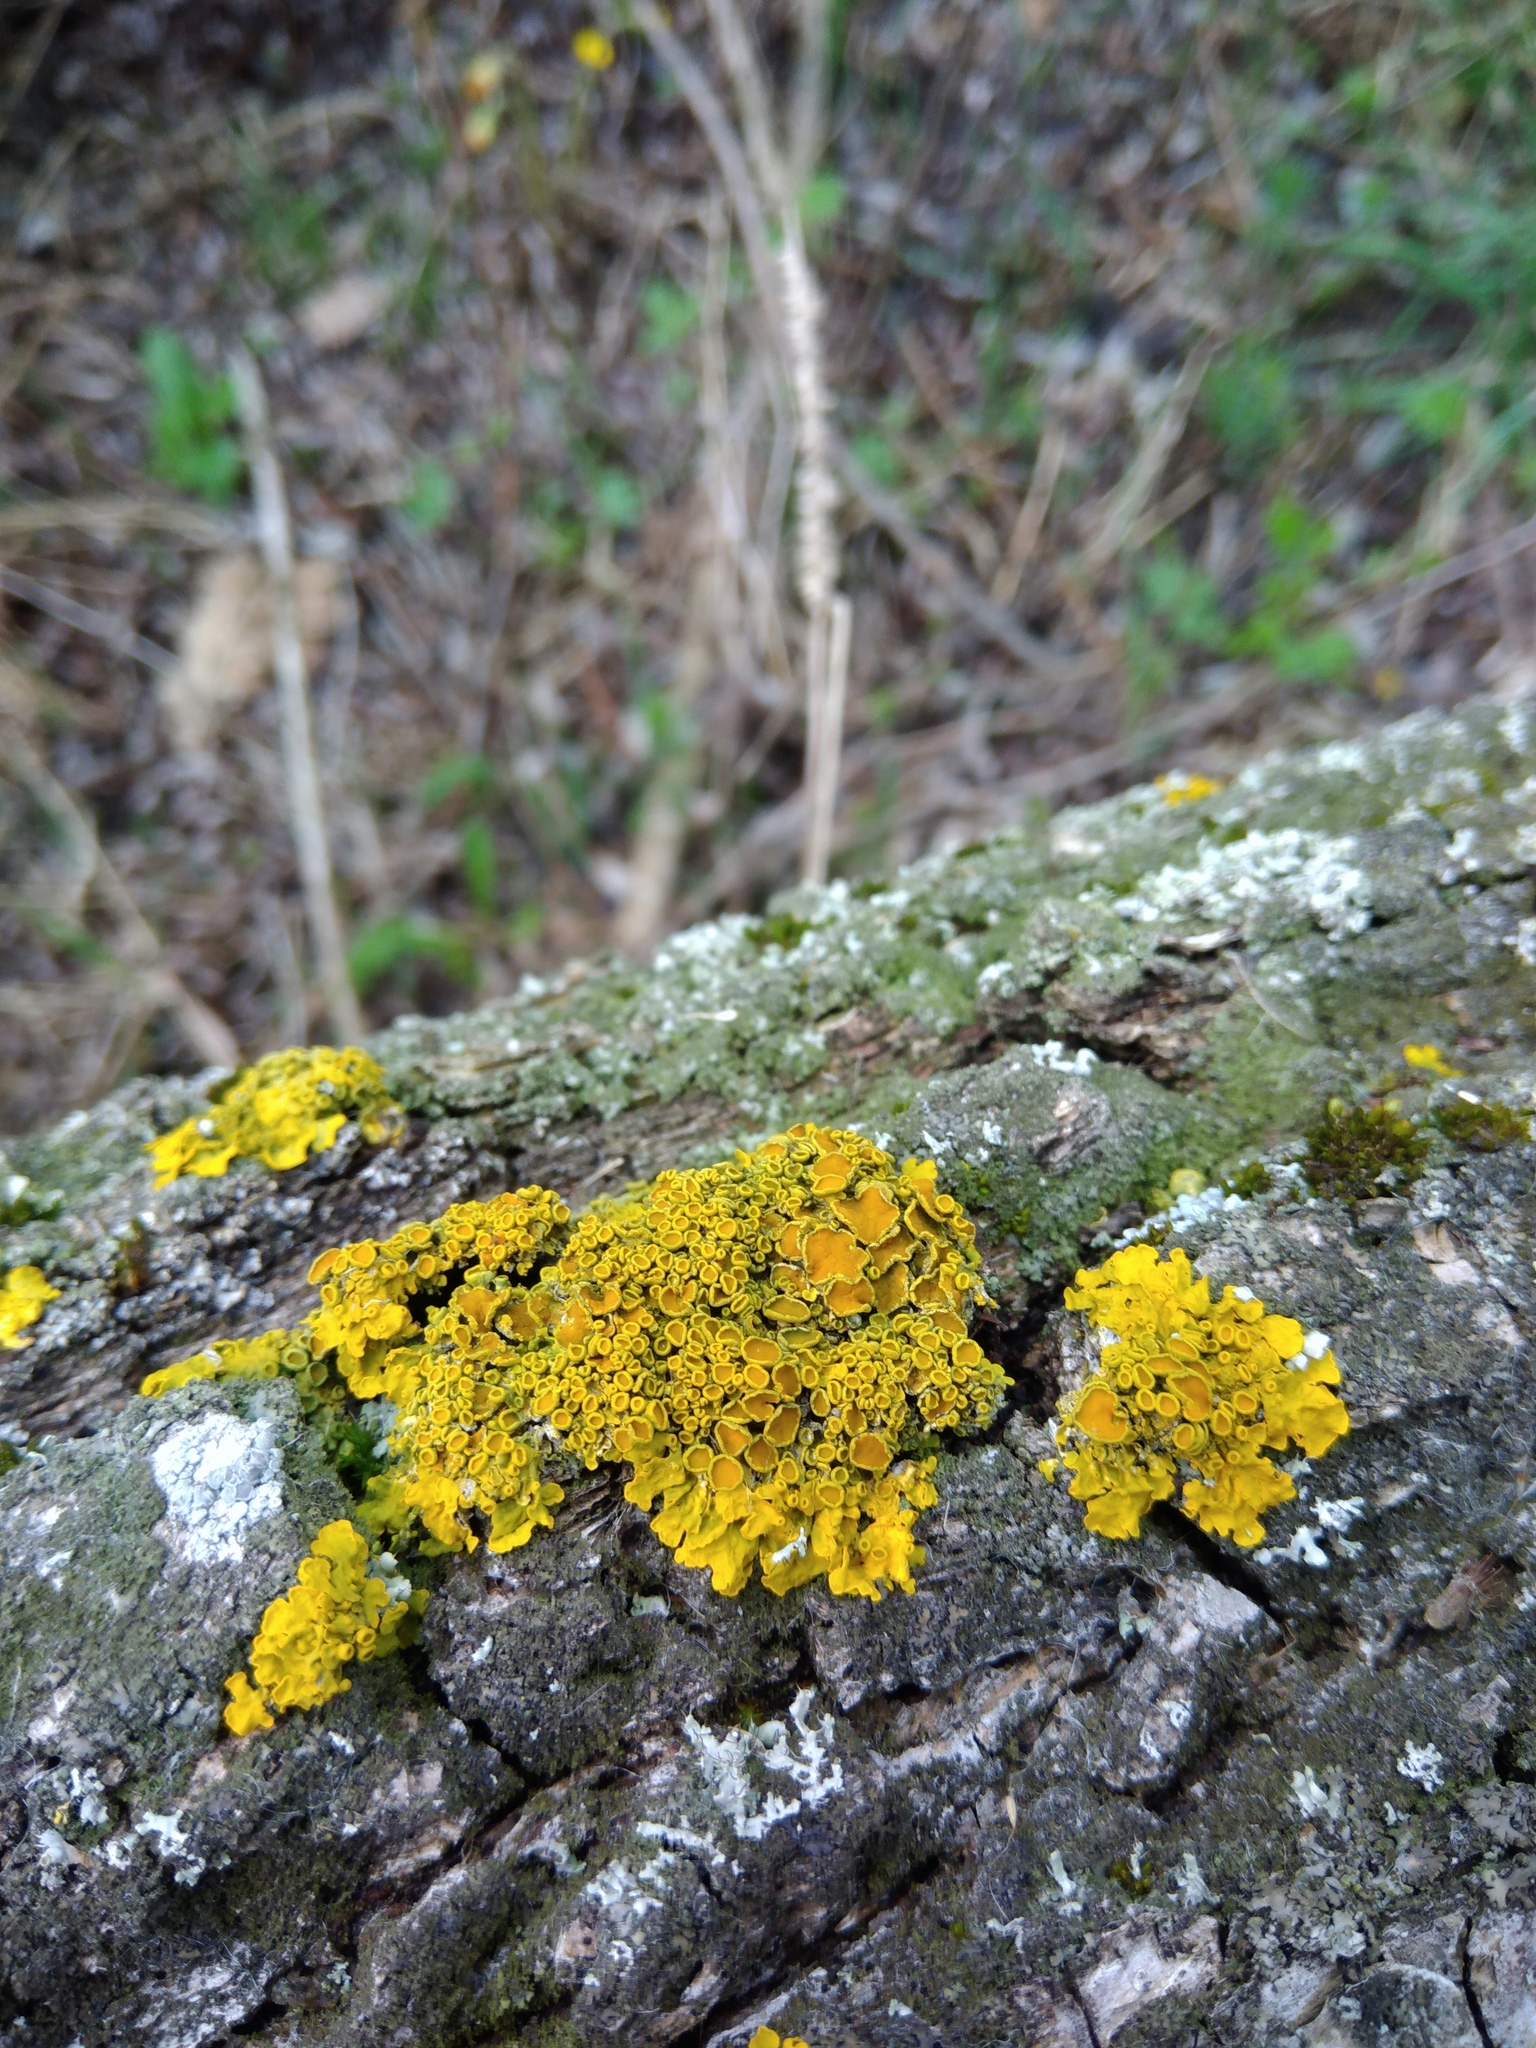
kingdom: Fungi
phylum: Ascomycota
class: Lecanoromycetes
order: Teloschistales
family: Teloschistaceae
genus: Xanthoria
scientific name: Xanthoria parietina
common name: Common orange lichen
